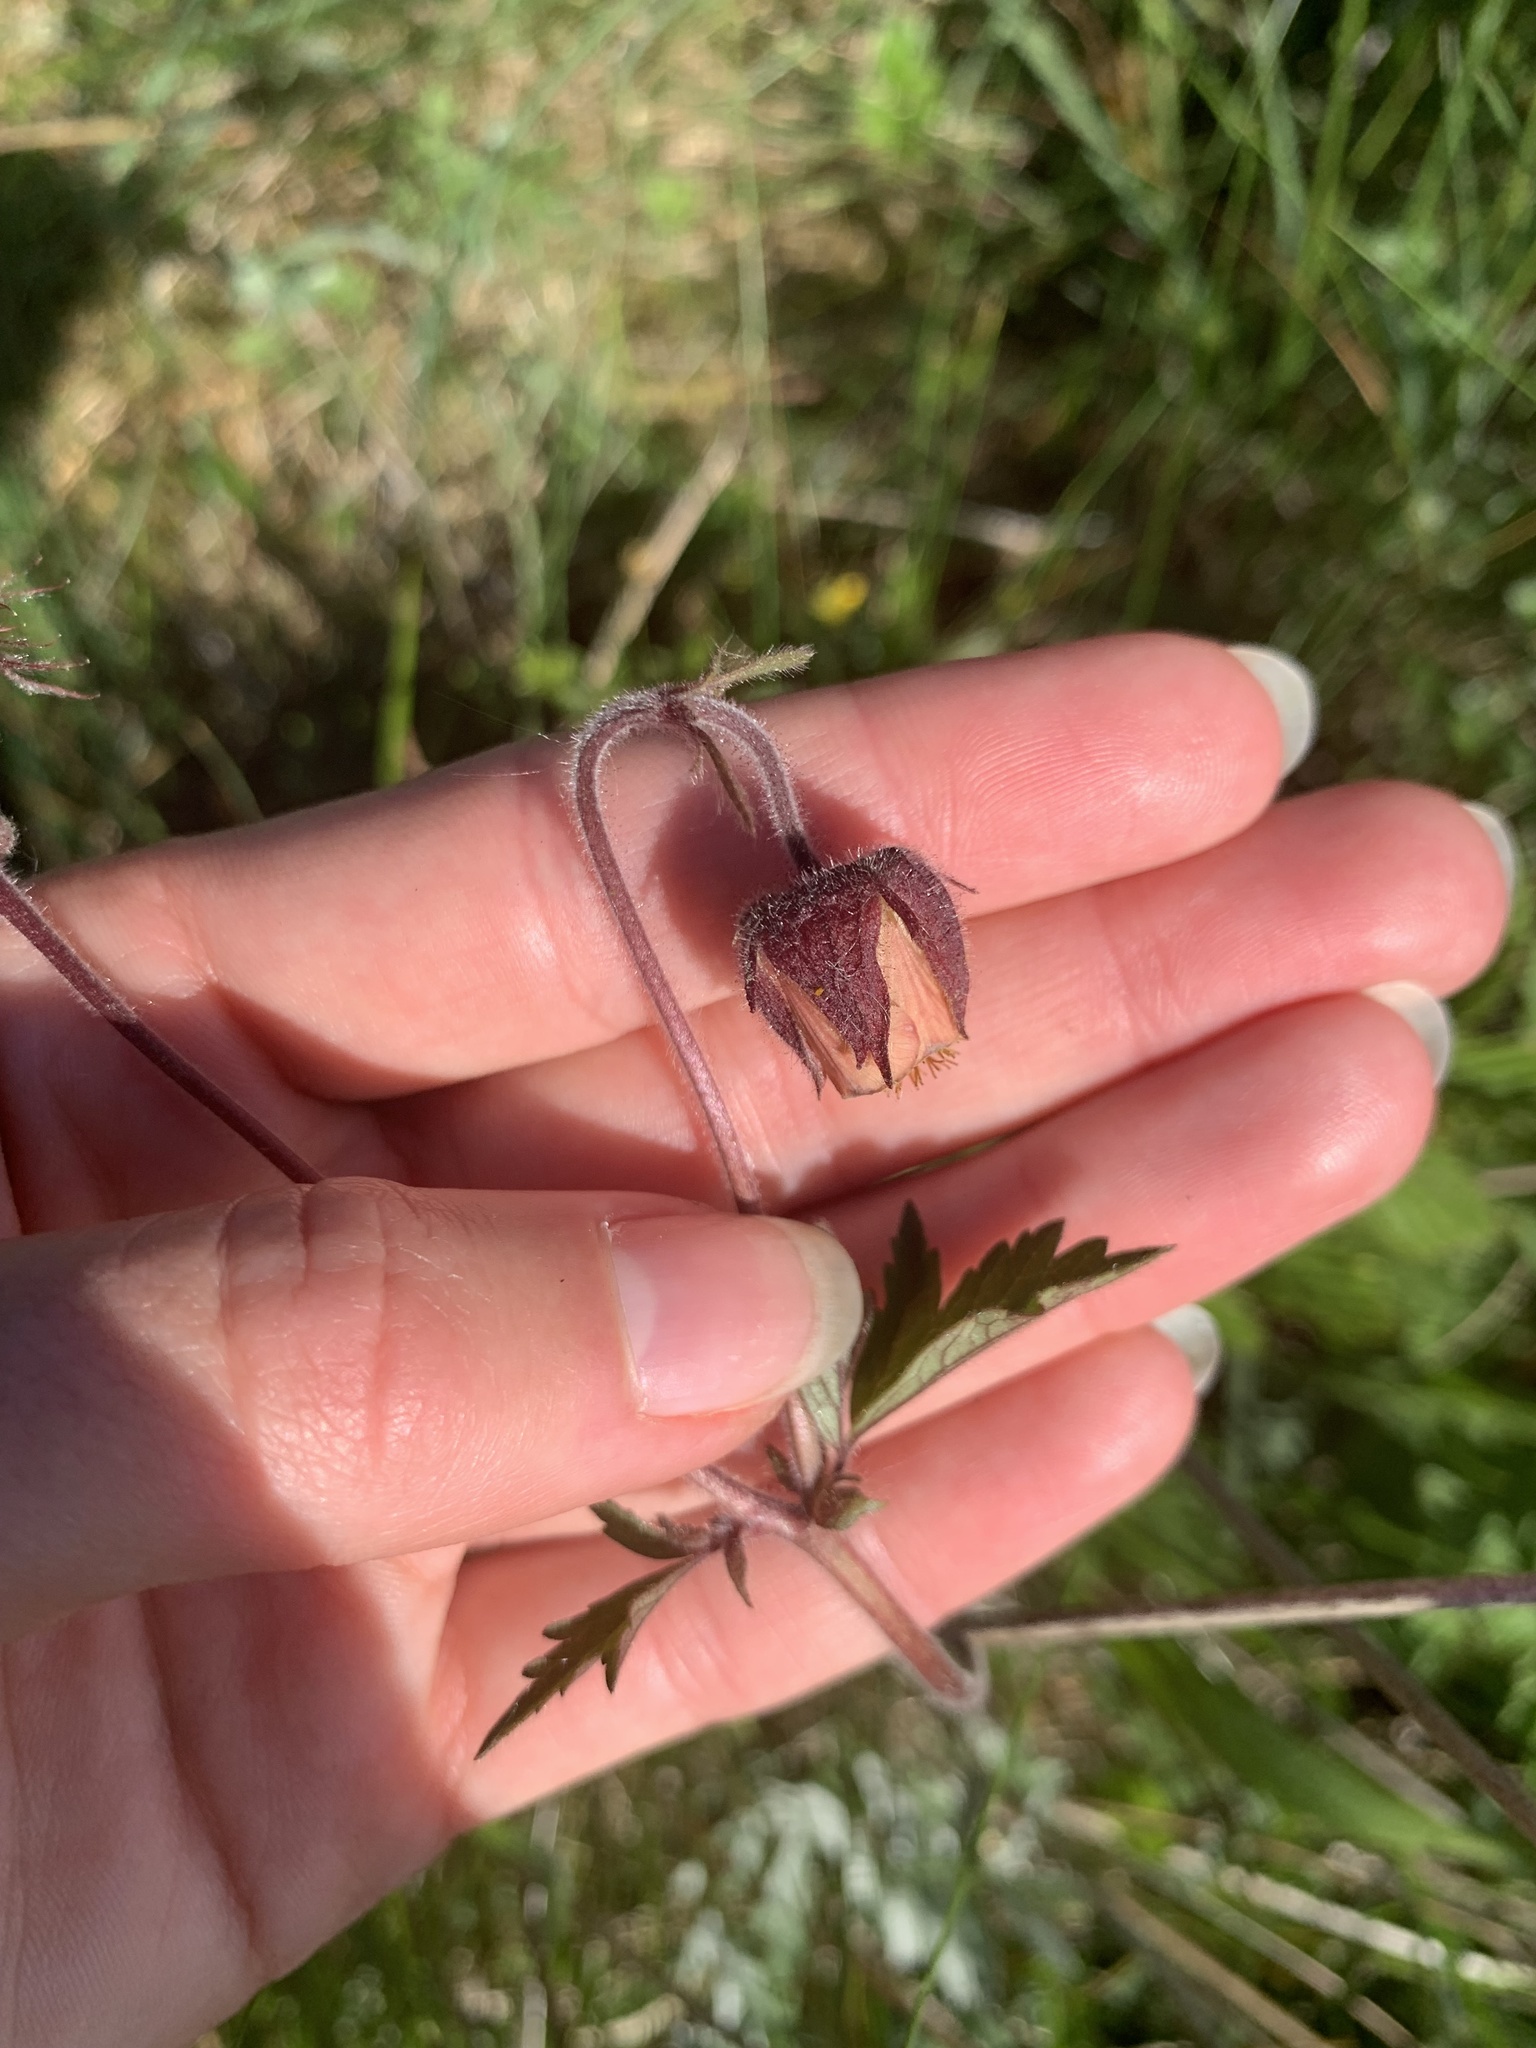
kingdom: Plantae
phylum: Tracheophyta
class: Magnoliopsida
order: Rosales
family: Rosaceae
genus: Geum
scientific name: Geum rivale
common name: Water avens
